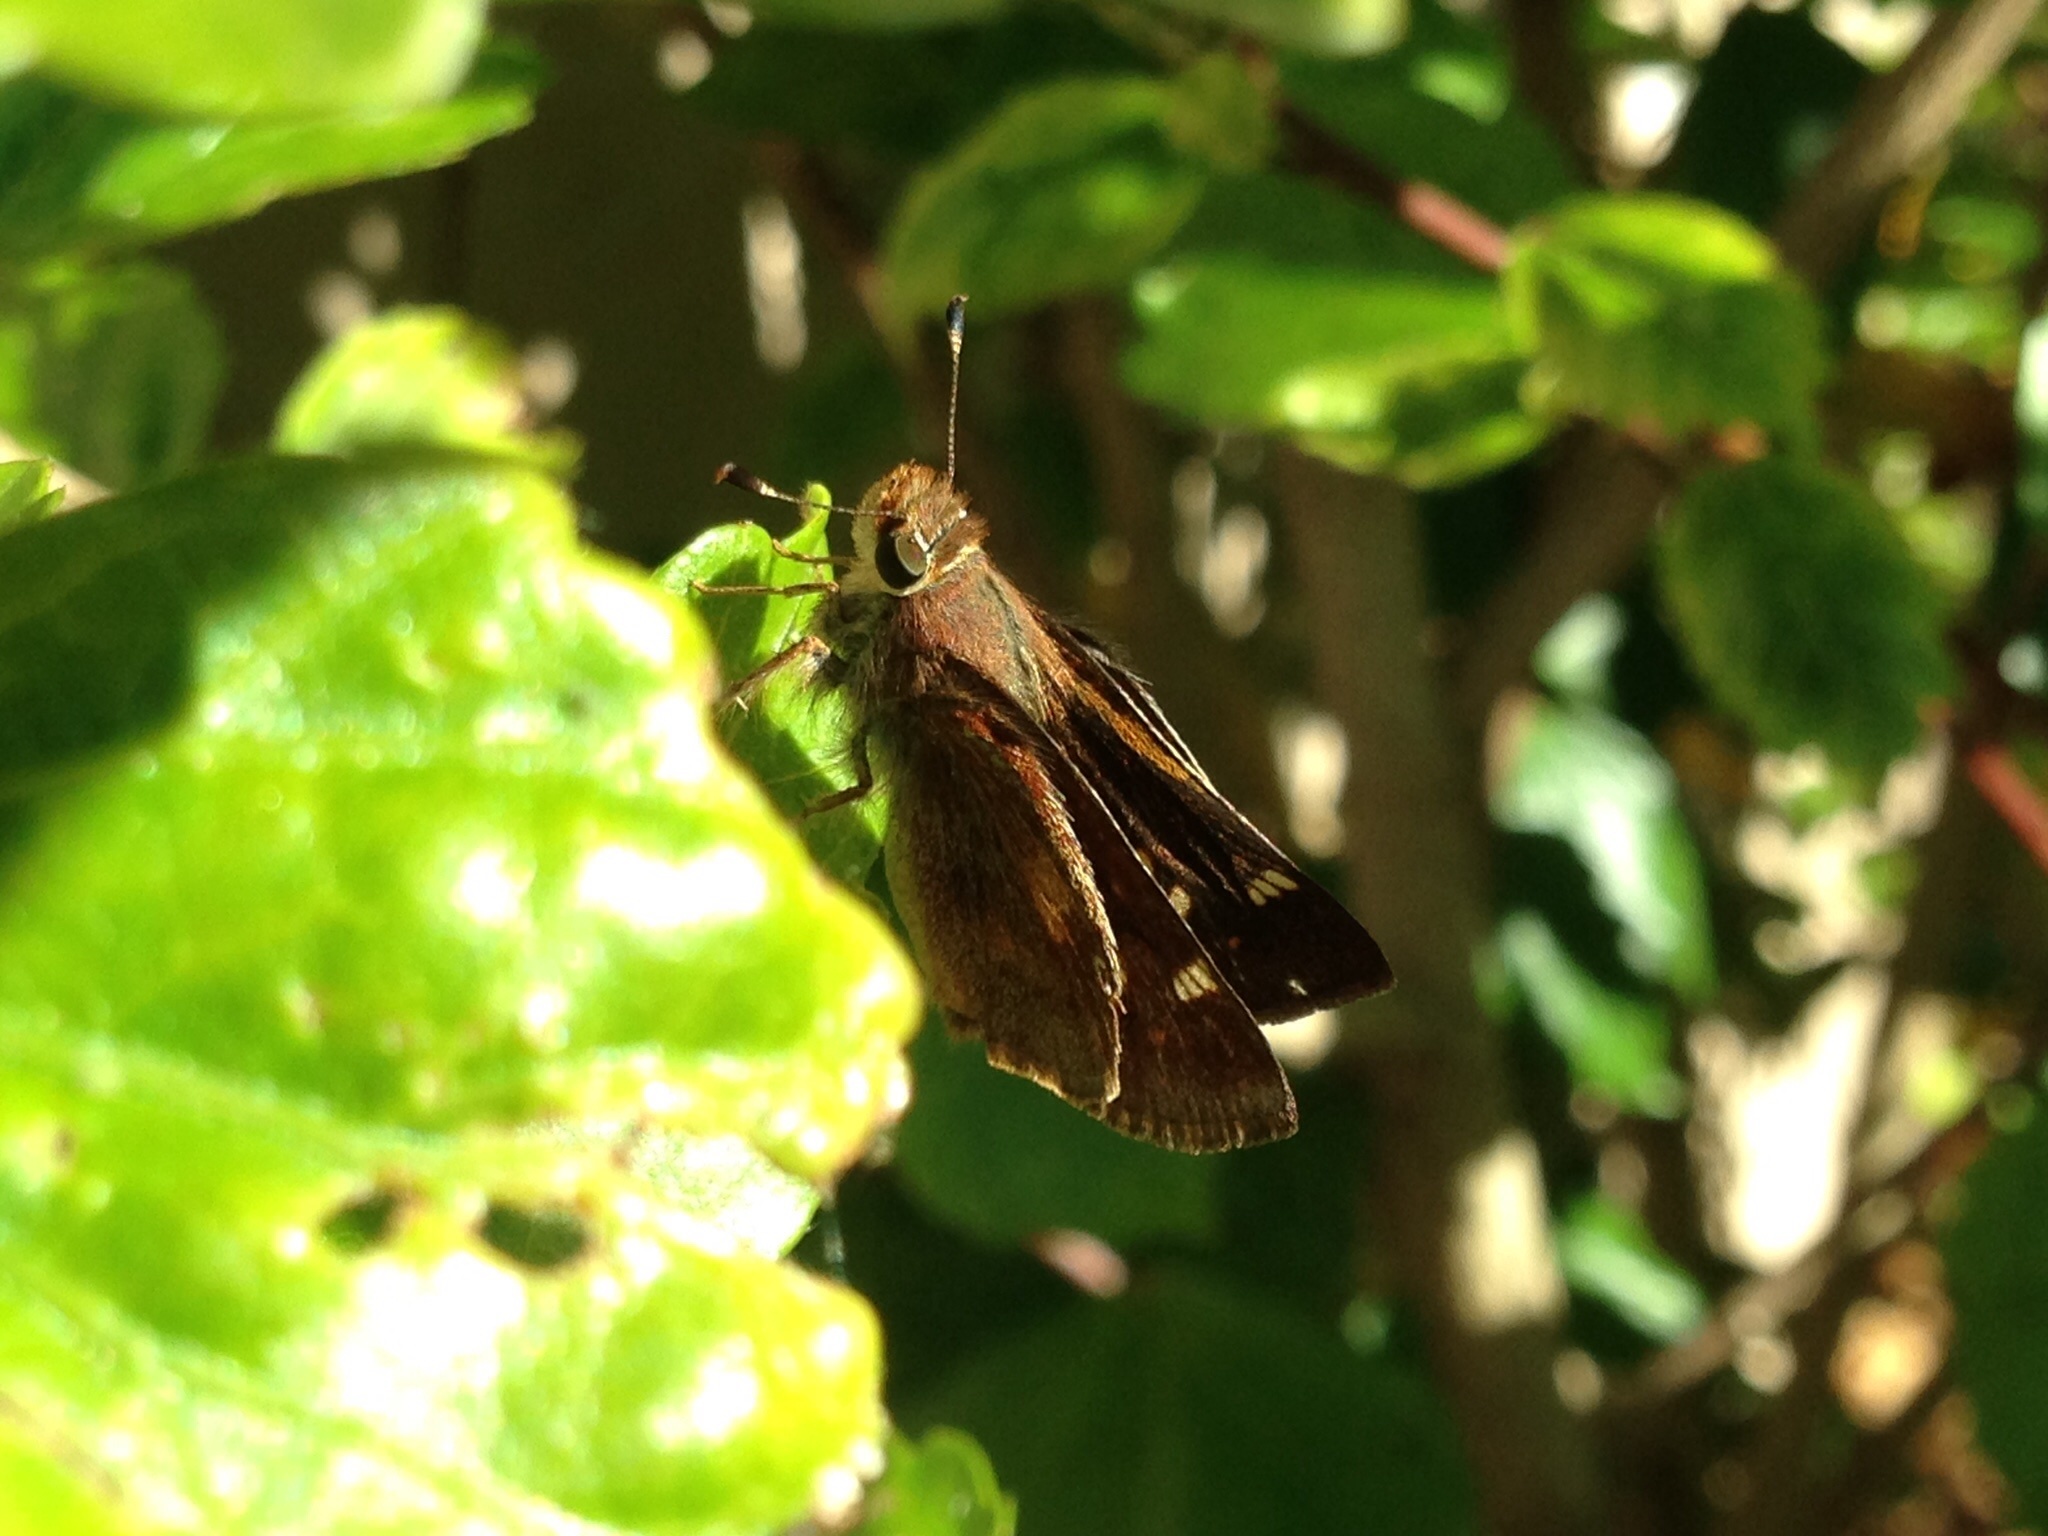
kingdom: Animalia
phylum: Arthropoda
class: Insecta
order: Lepidoptera
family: Hesperiidae
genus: Lon
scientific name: Lon melane
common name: Umber skipper
